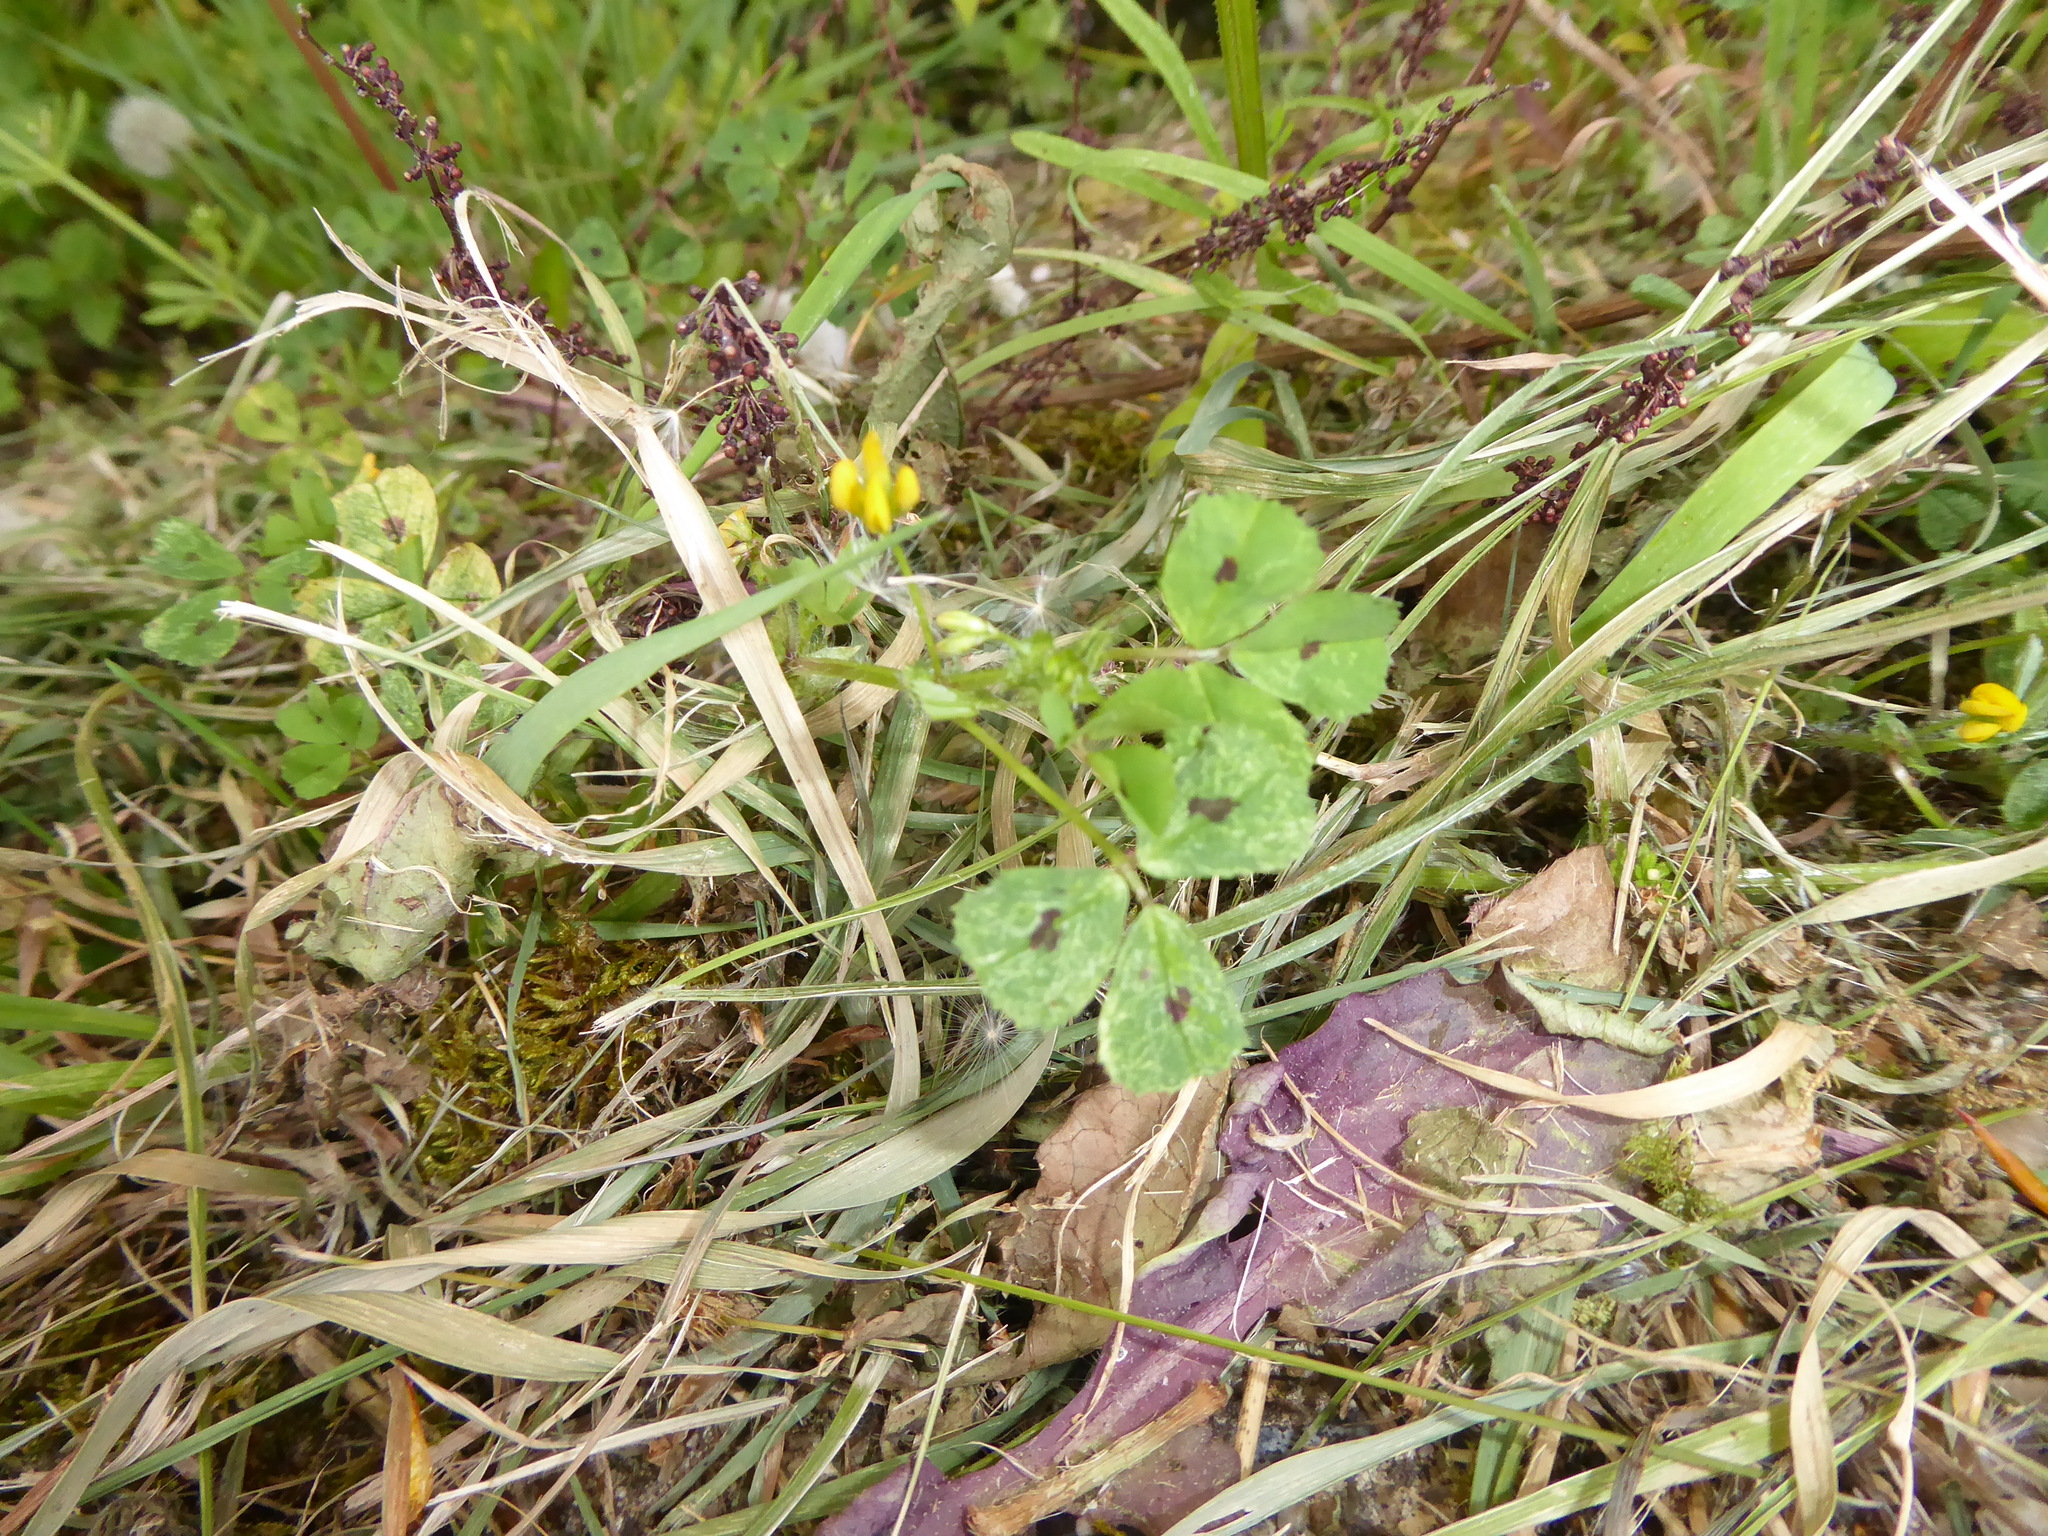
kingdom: Plantae
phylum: Tracheophyta
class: Magnoliopsida
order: Fabales
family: Fabaceae
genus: Medicago
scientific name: Medicago arabica
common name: Spotted medick
